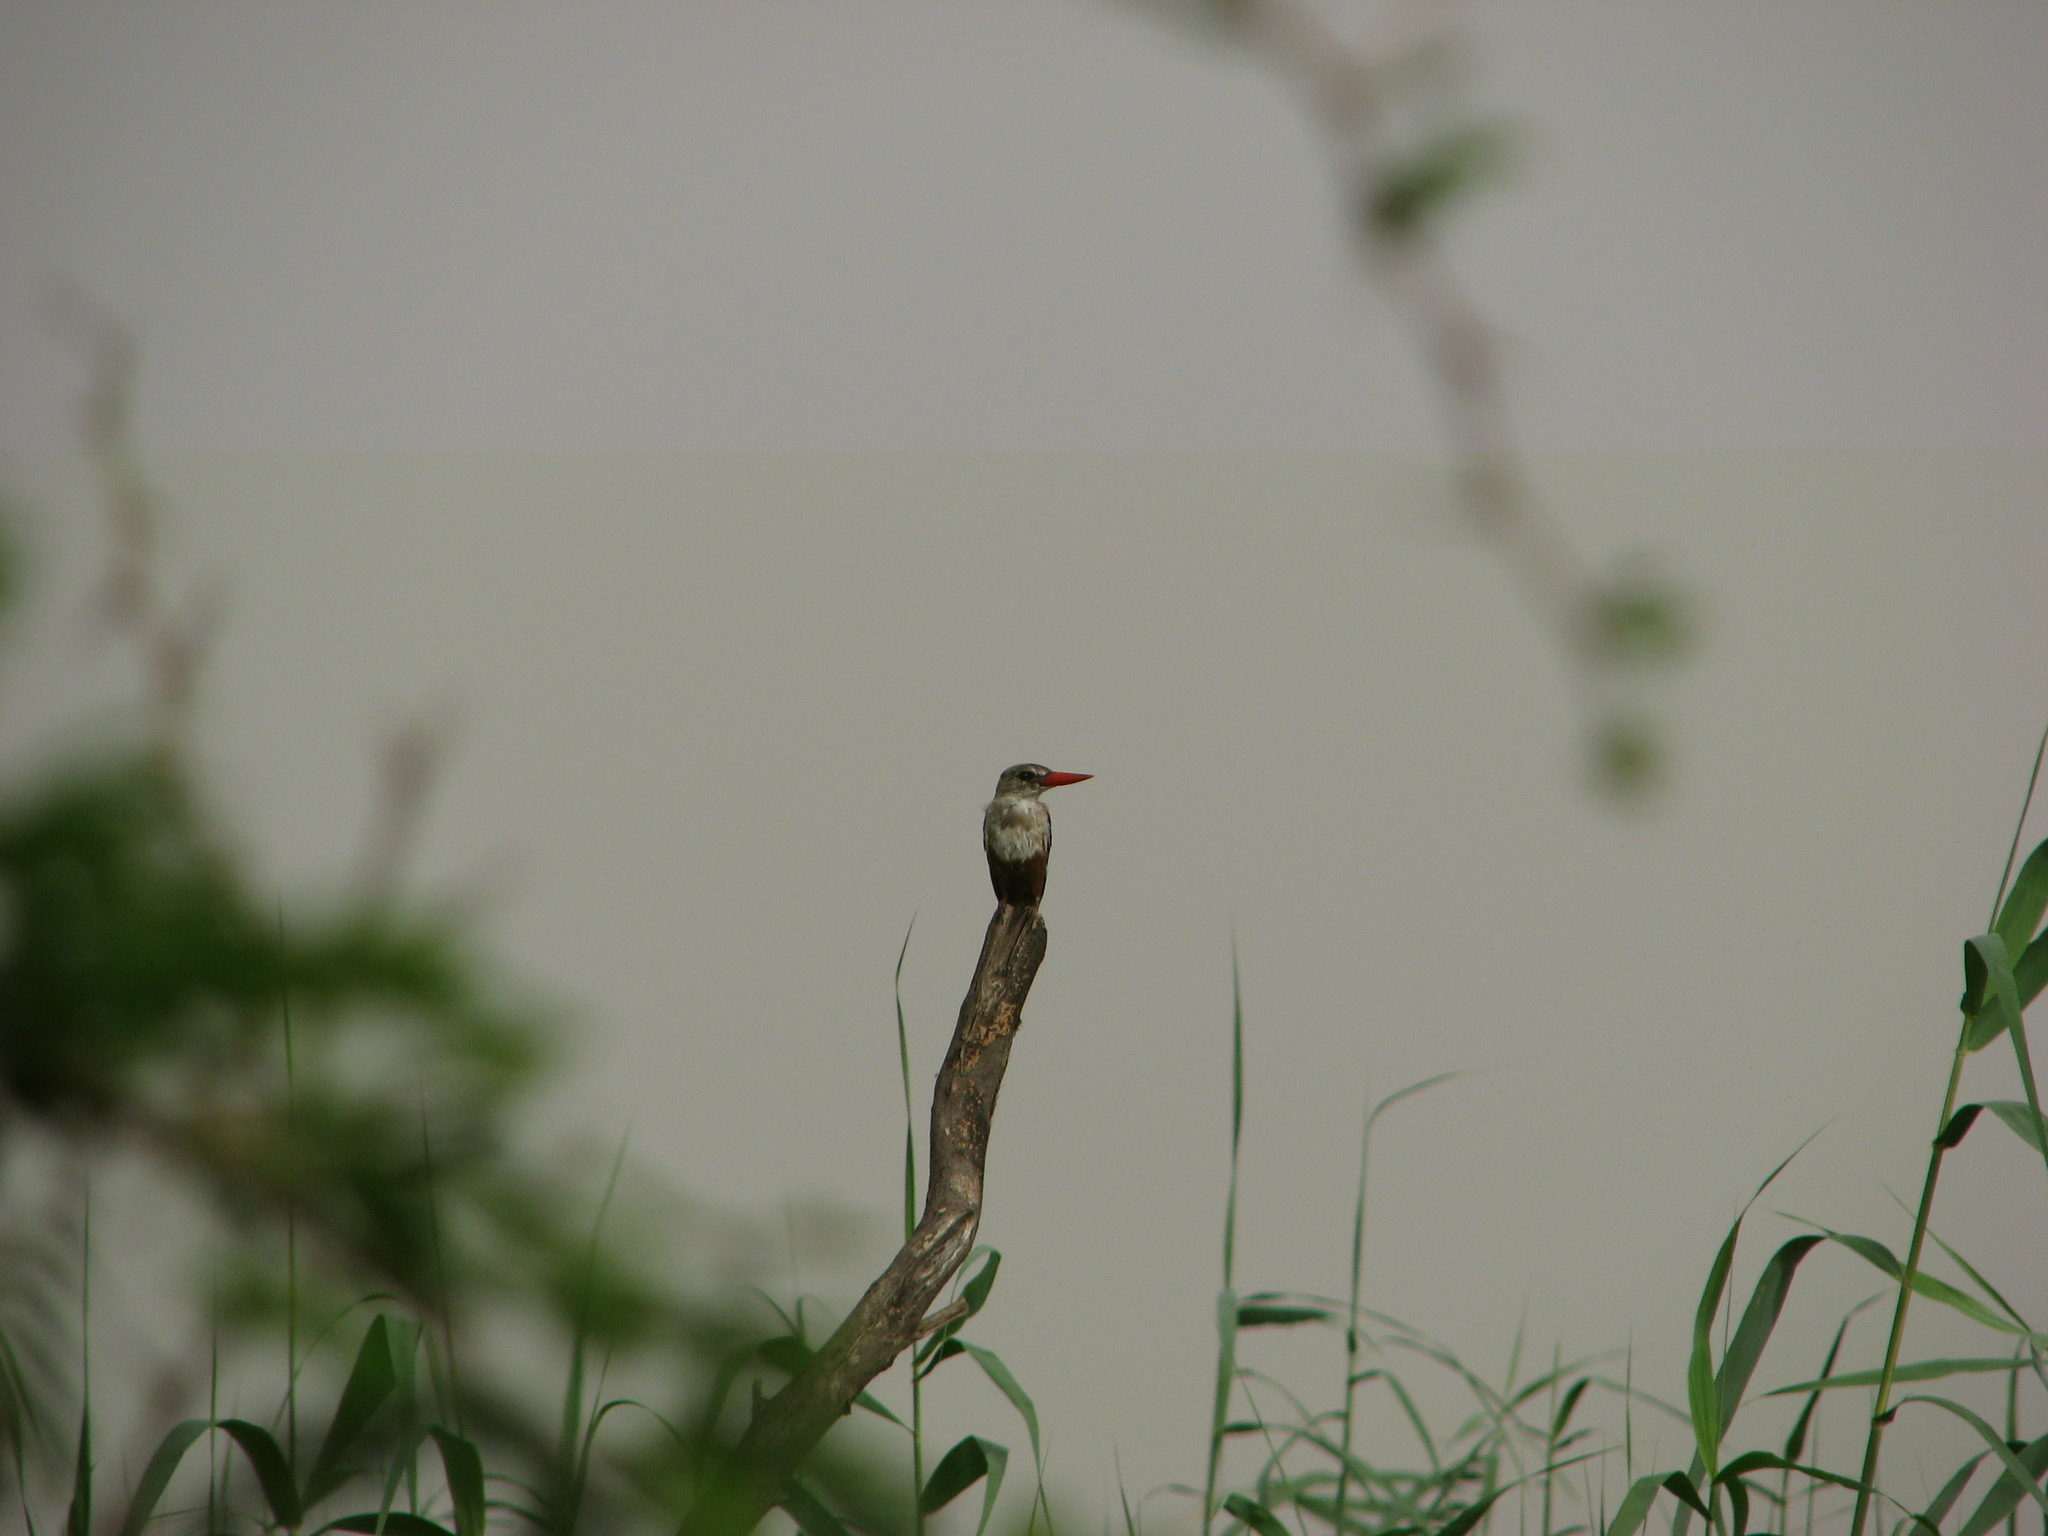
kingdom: Animalia
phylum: Chordata
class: Aves
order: Coraciiformes
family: Alcedinidae
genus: Halcyon
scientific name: Halcyon leucocephala
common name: Grey-headed kingfisher
